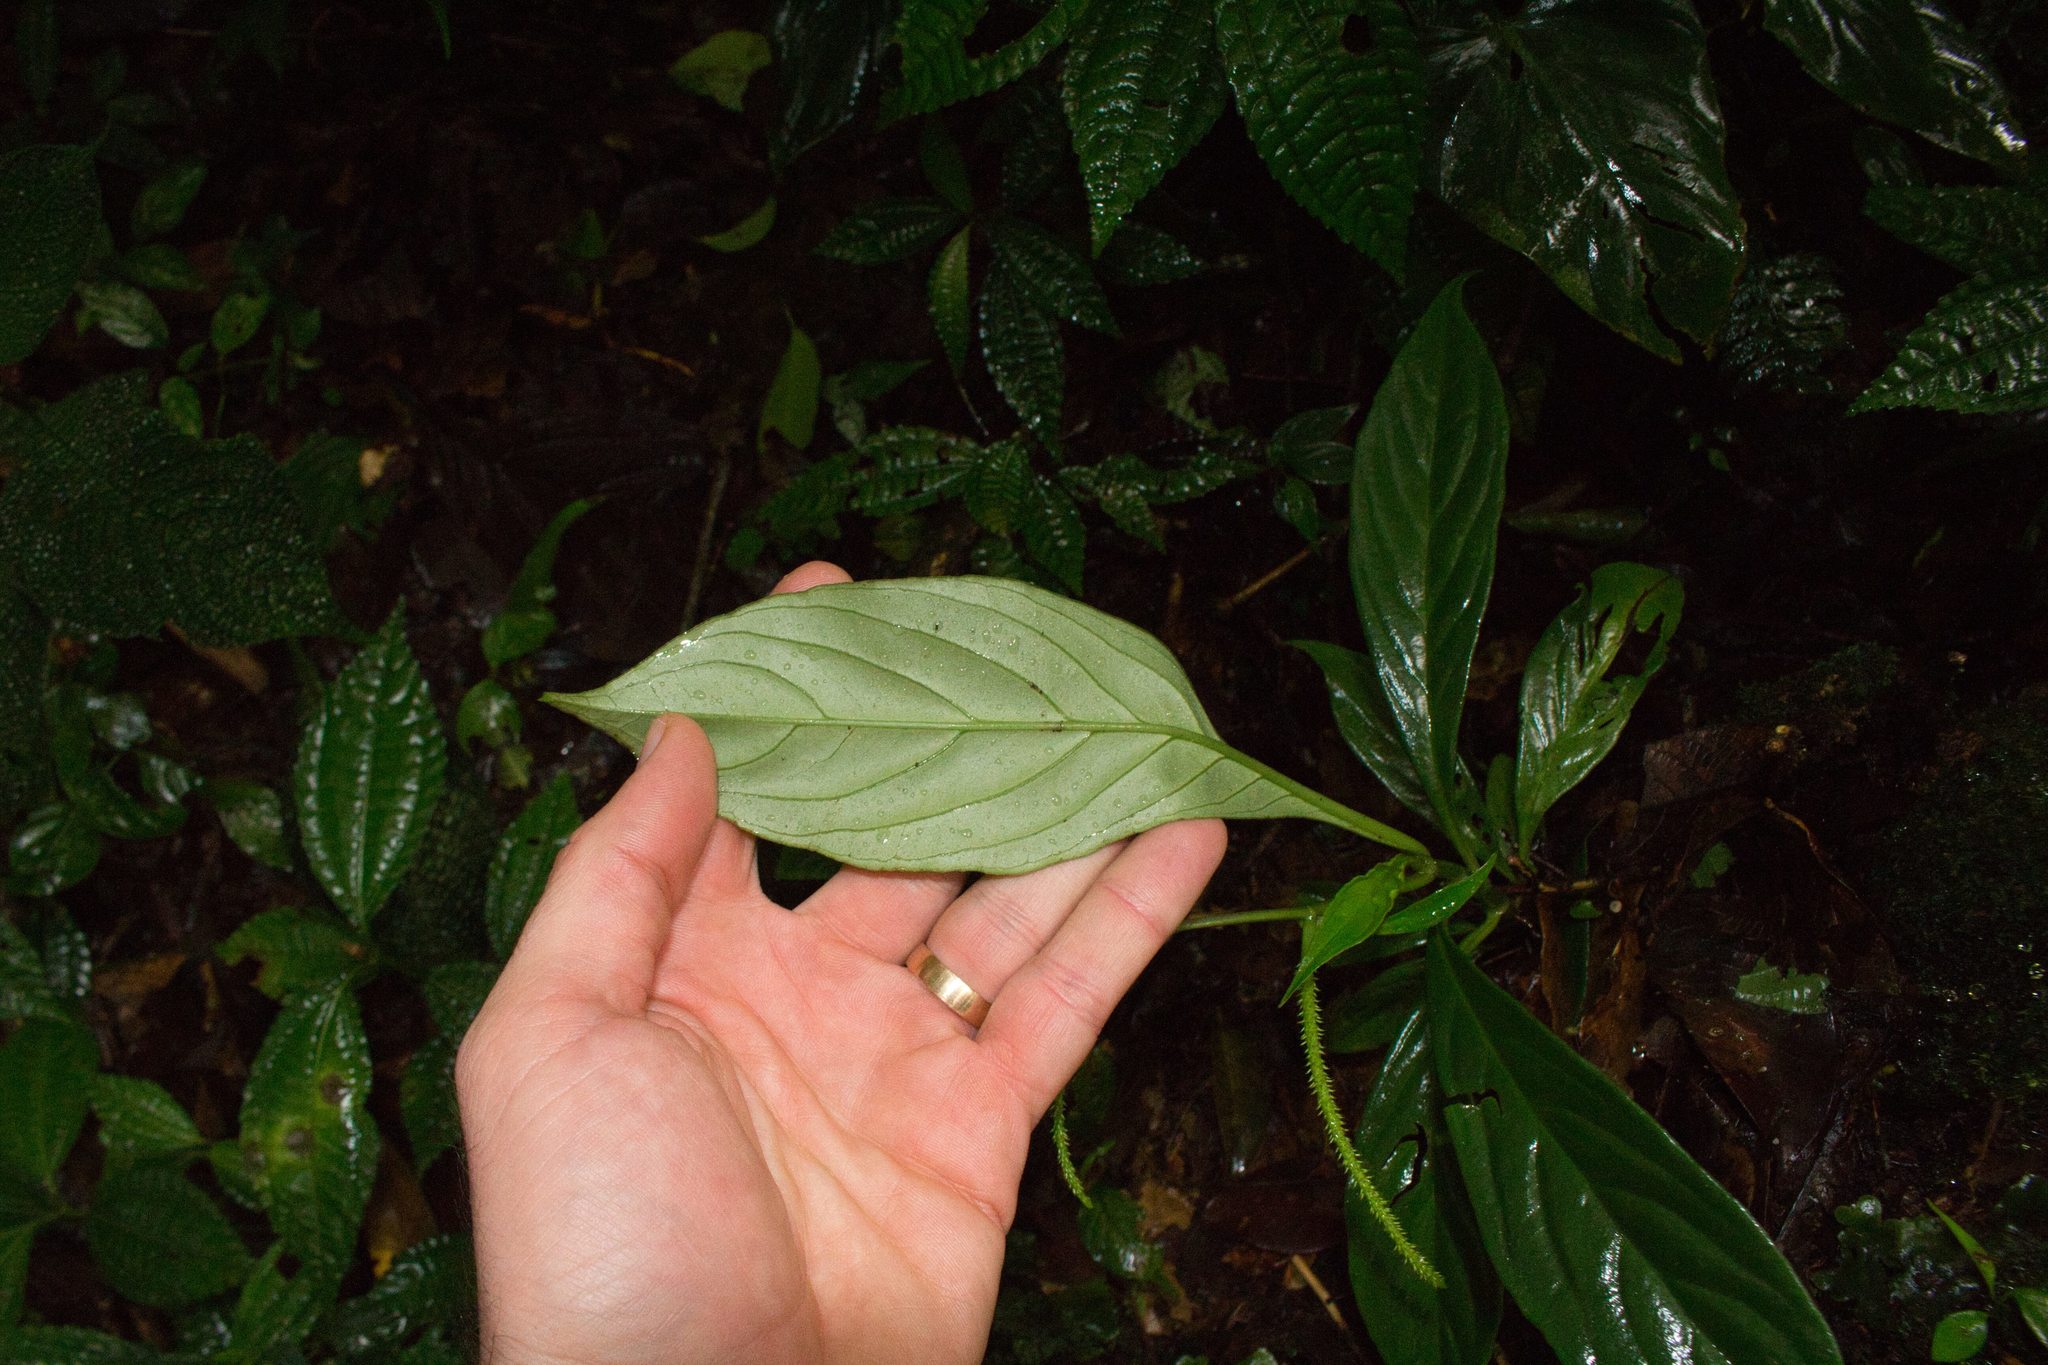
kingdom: Plantae
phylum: Tracheophyta
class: Magnoliopsida
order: Piperales
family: Piperaceae
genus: Peperomia
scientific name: Peperomia lancifolia
